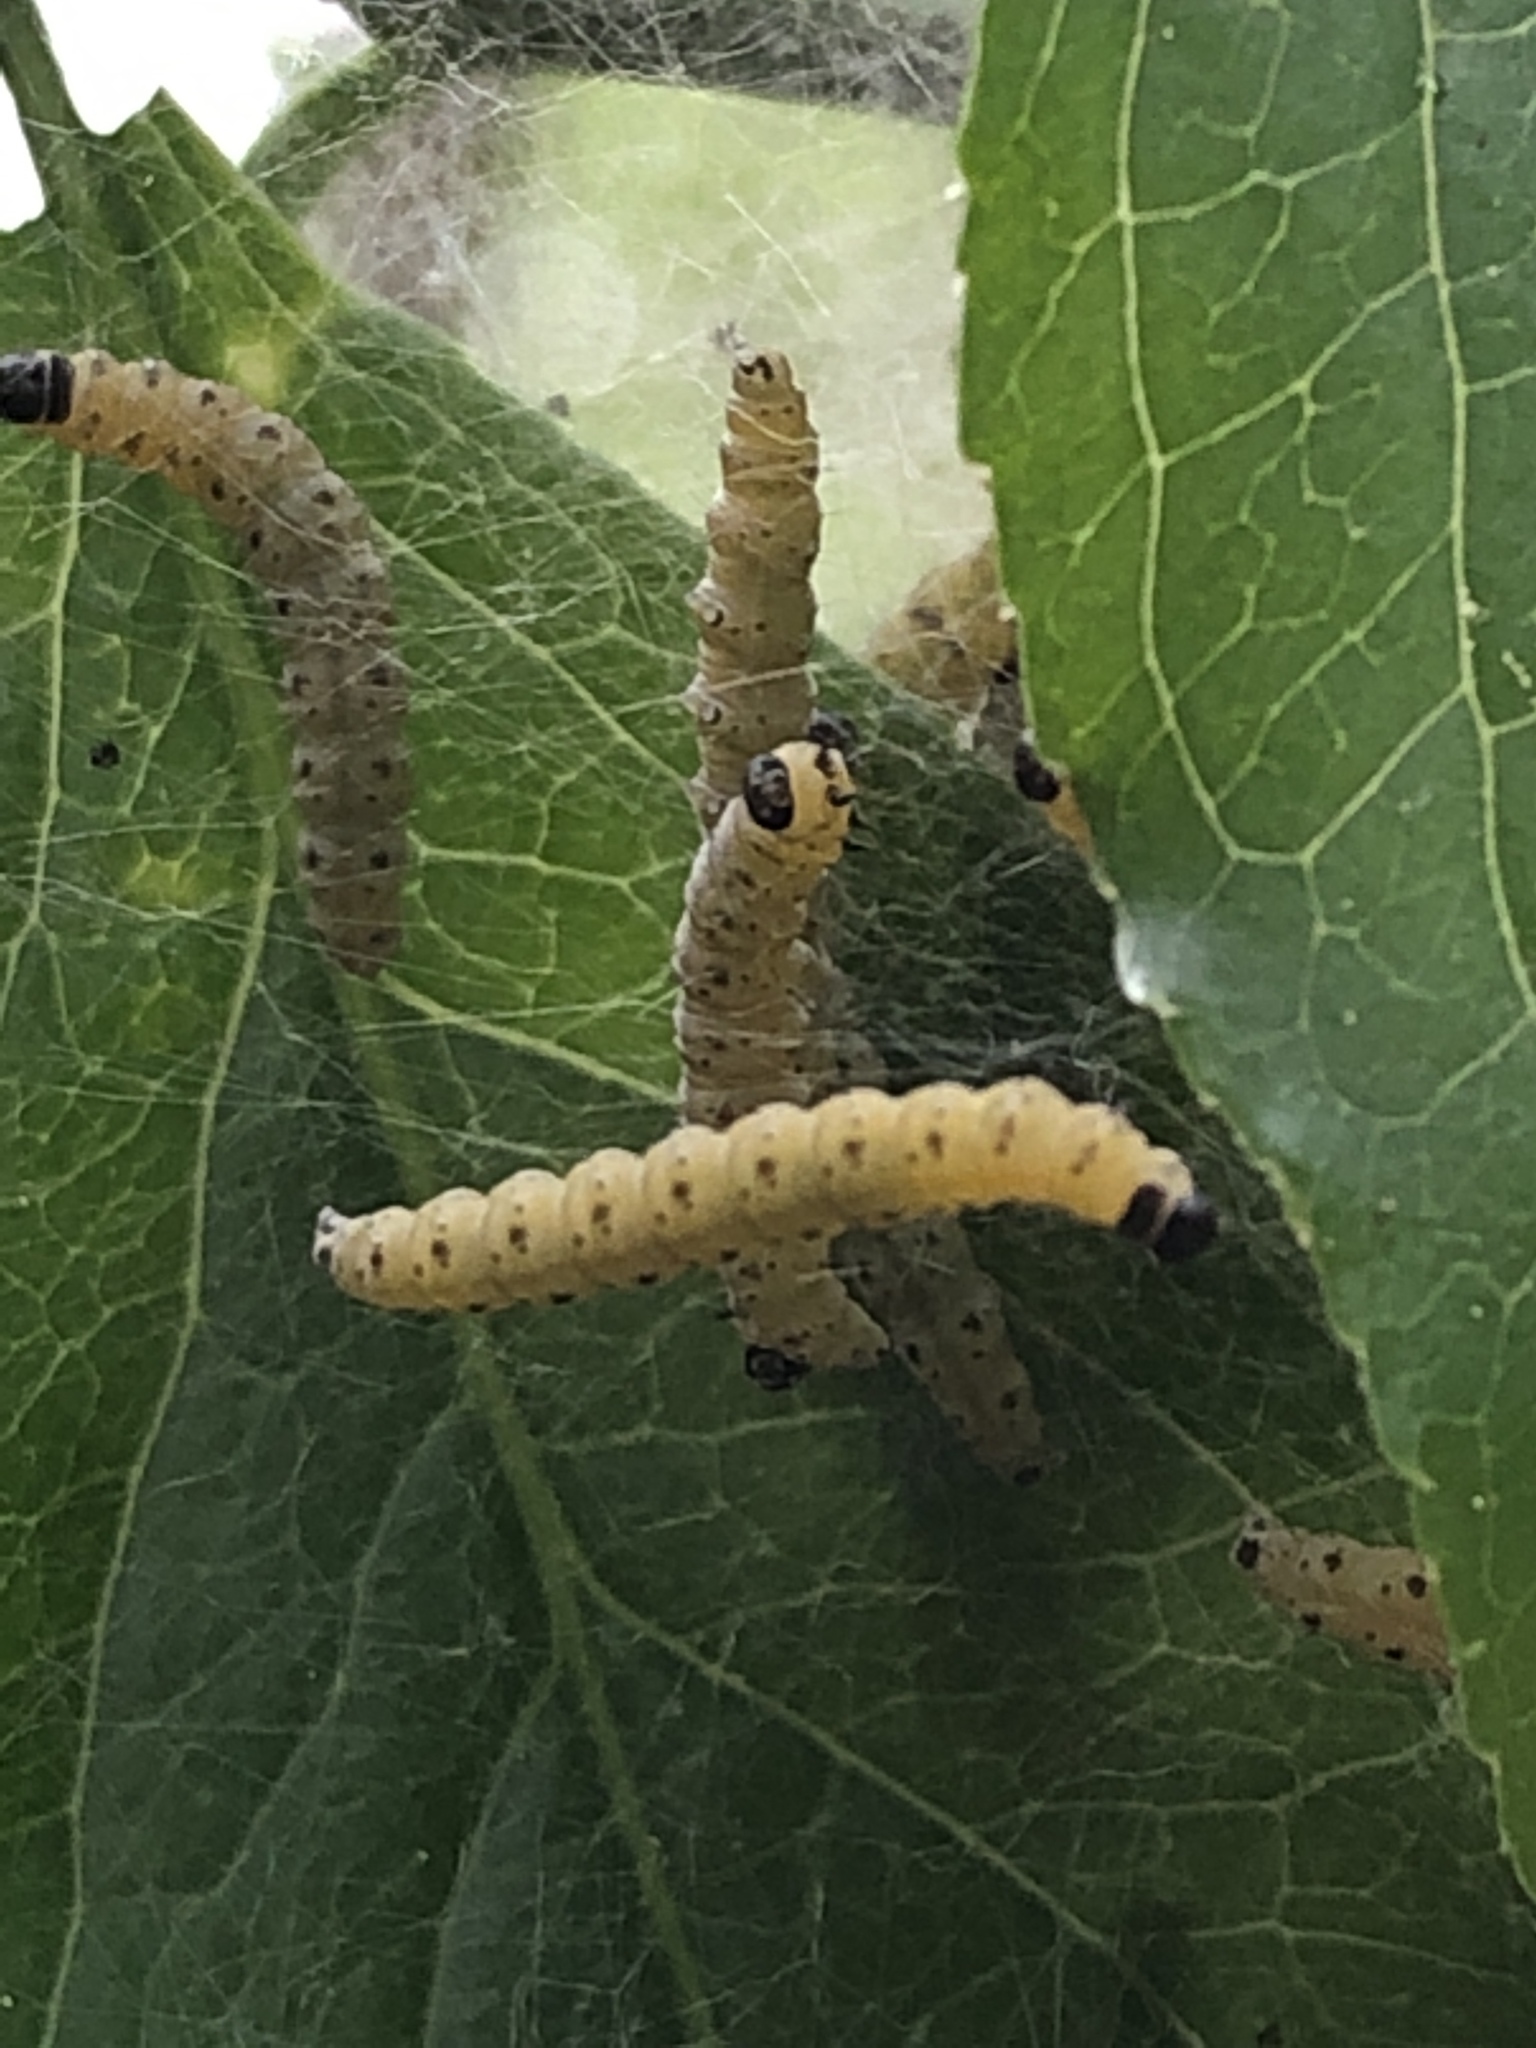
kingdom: Animalia
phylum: Arthropoda
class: Insecta
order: Lepidoptera
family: Yponomeutidae
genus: Yponomeuta
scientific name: Yponomeuta cagnagellus
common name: Spindle ermine
